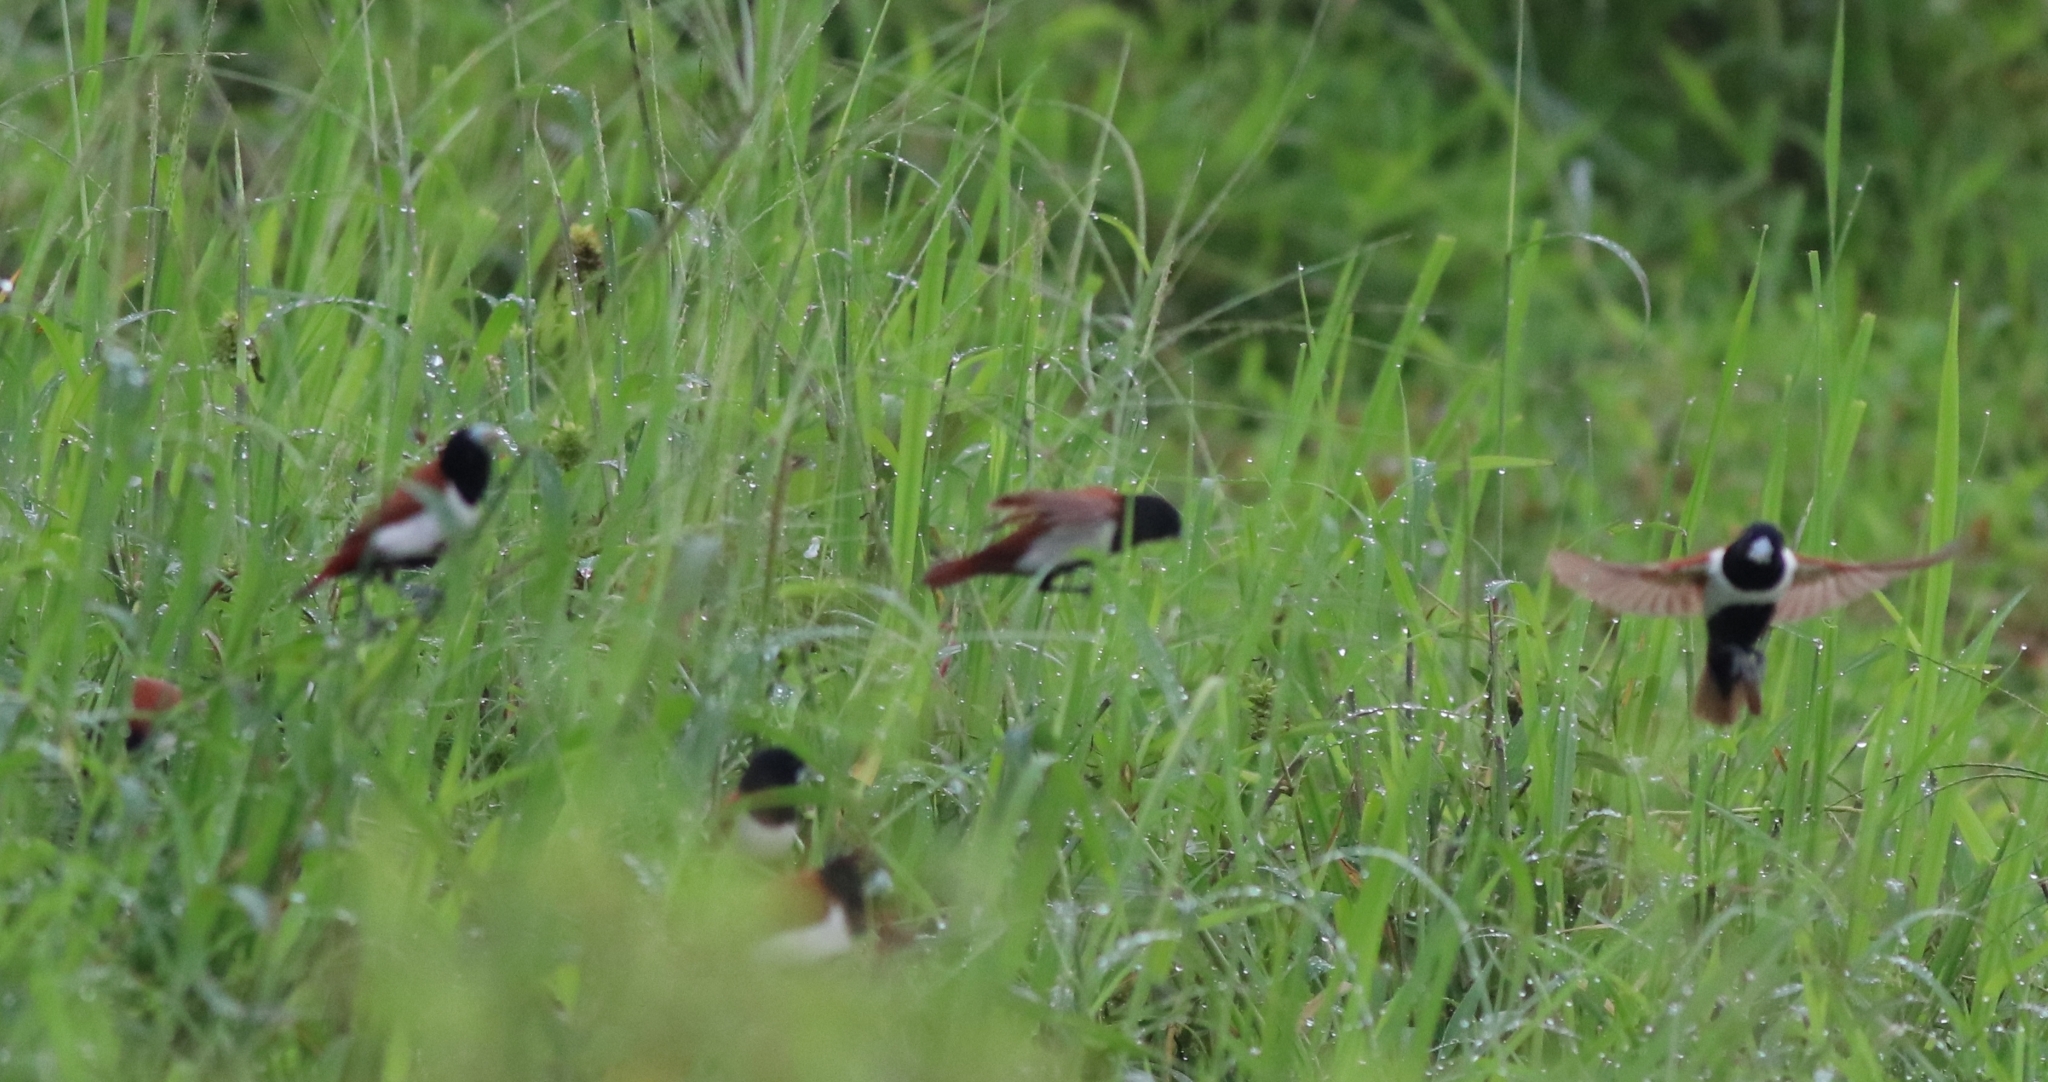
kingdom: Animalia
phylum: Chordata
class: Aves
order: Passeriformes
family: Estrildidae
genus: Lonchura
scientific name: Lonchura malacca
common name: Tricolored munia
